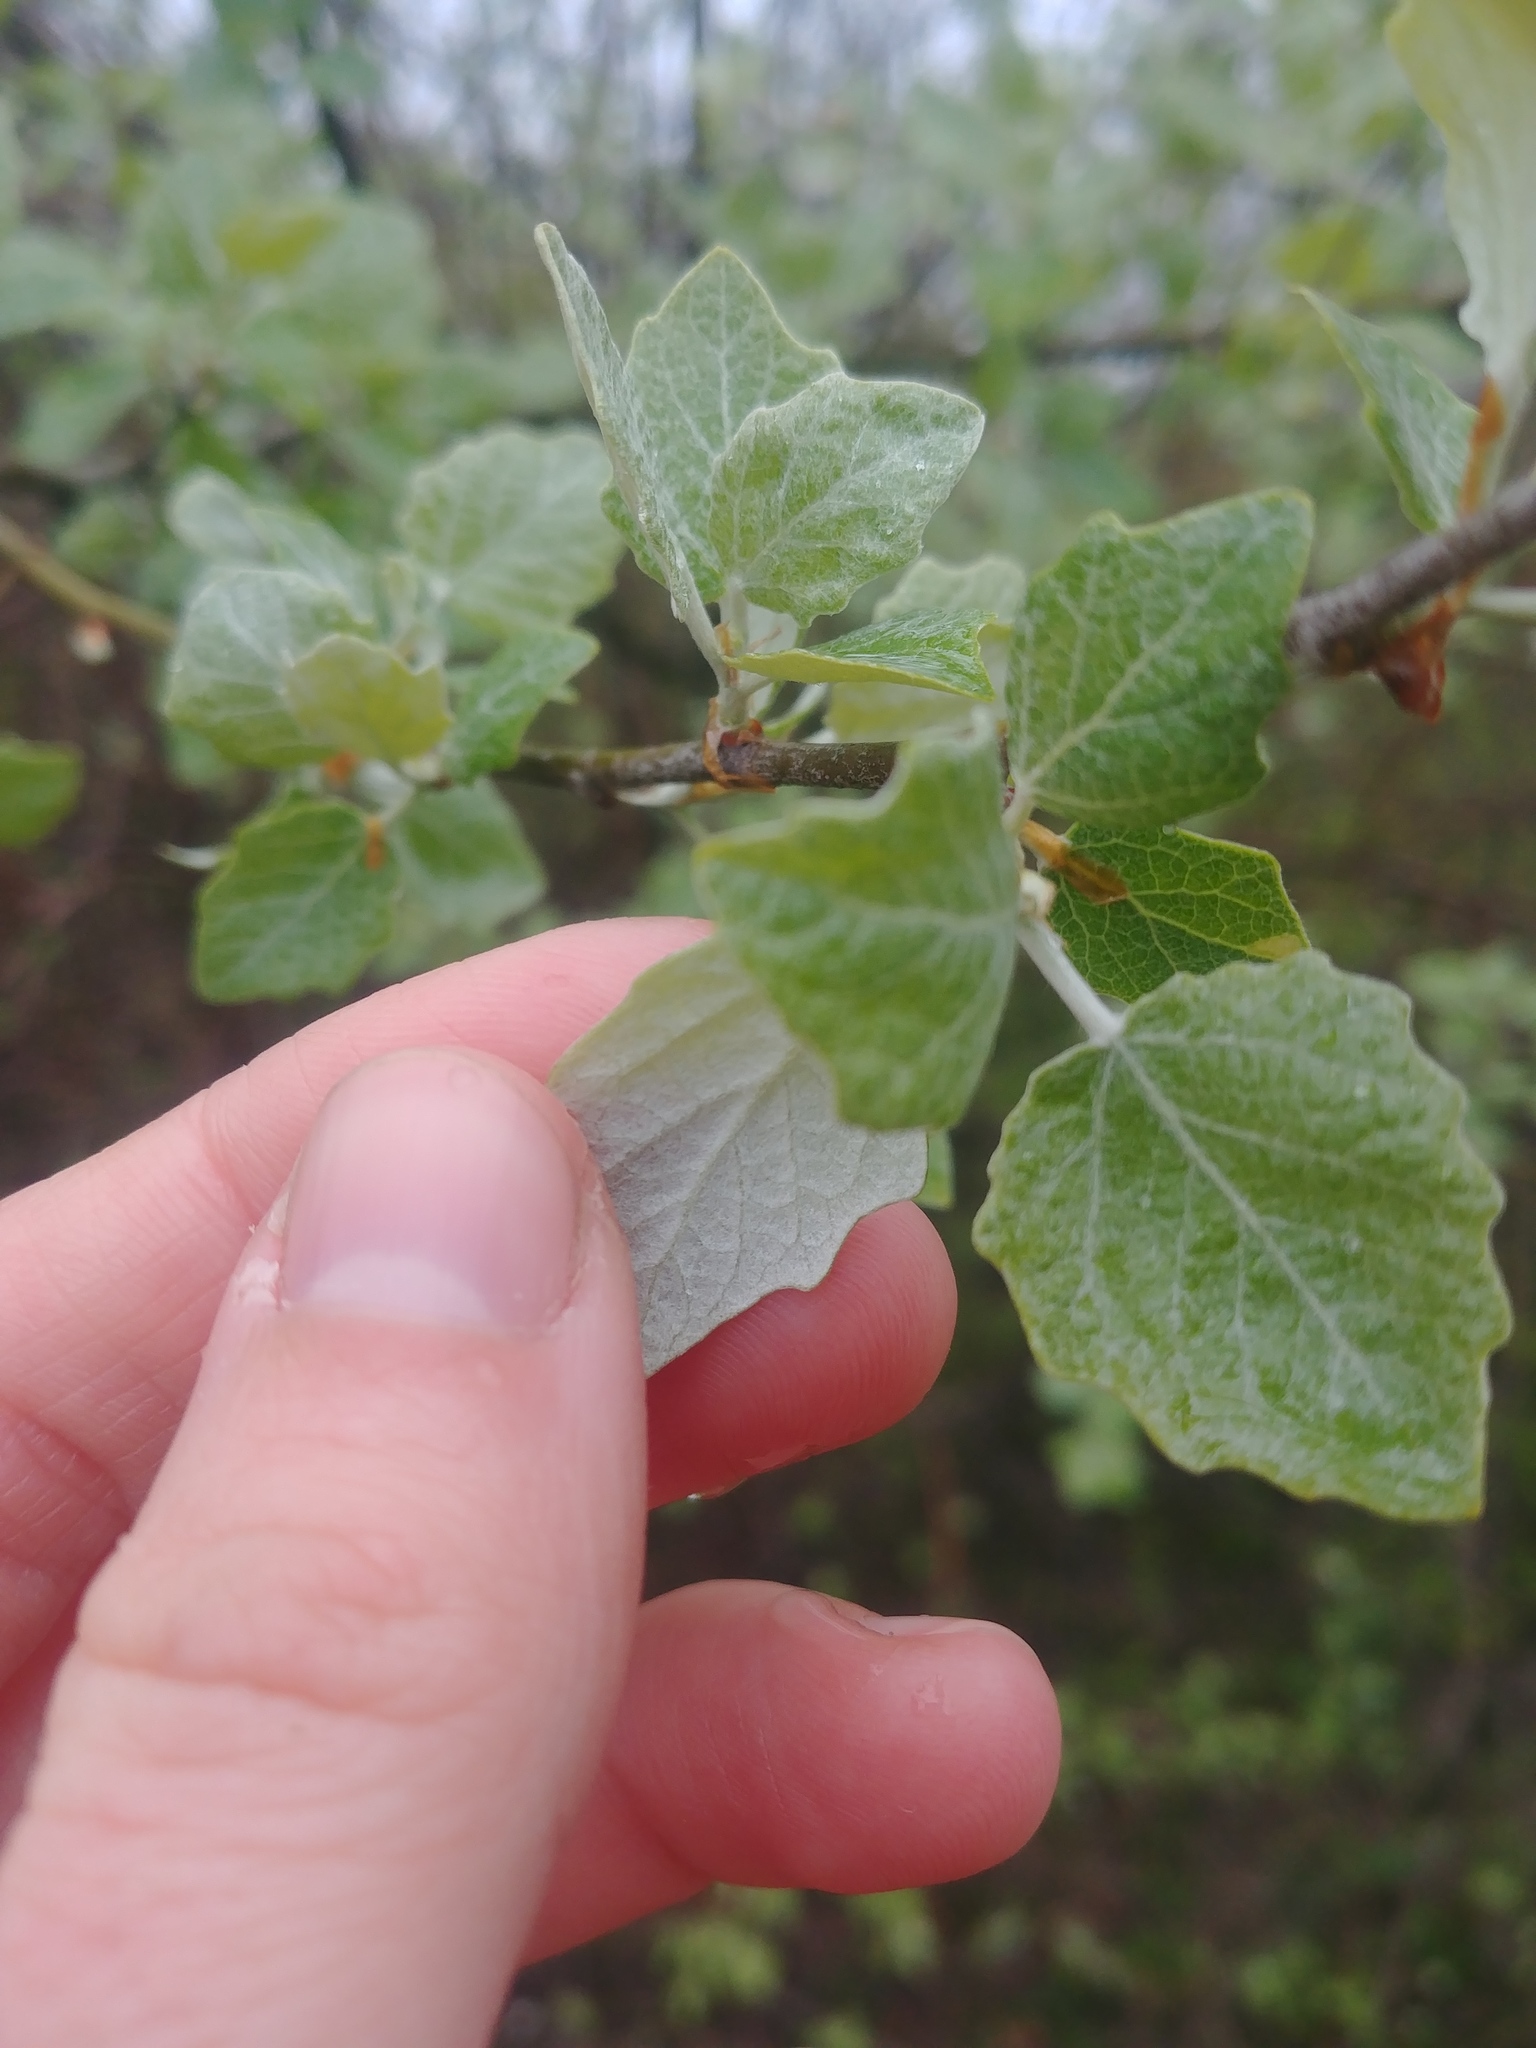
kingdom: Plantae
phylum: Tracheophyta
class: Magnoliopsida
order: Malpighiales
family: Salicaceae
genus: Populus
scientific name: Populus alba
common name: White poplar
